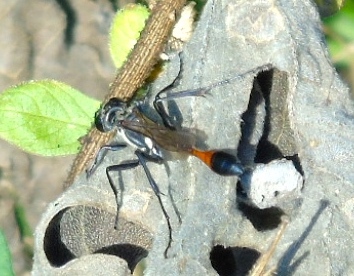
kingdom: Animalia
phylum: Arthropoda
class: Insecta
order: Hymenoptera
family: Sphecidae
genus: Ammophila
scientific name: Ammophila
